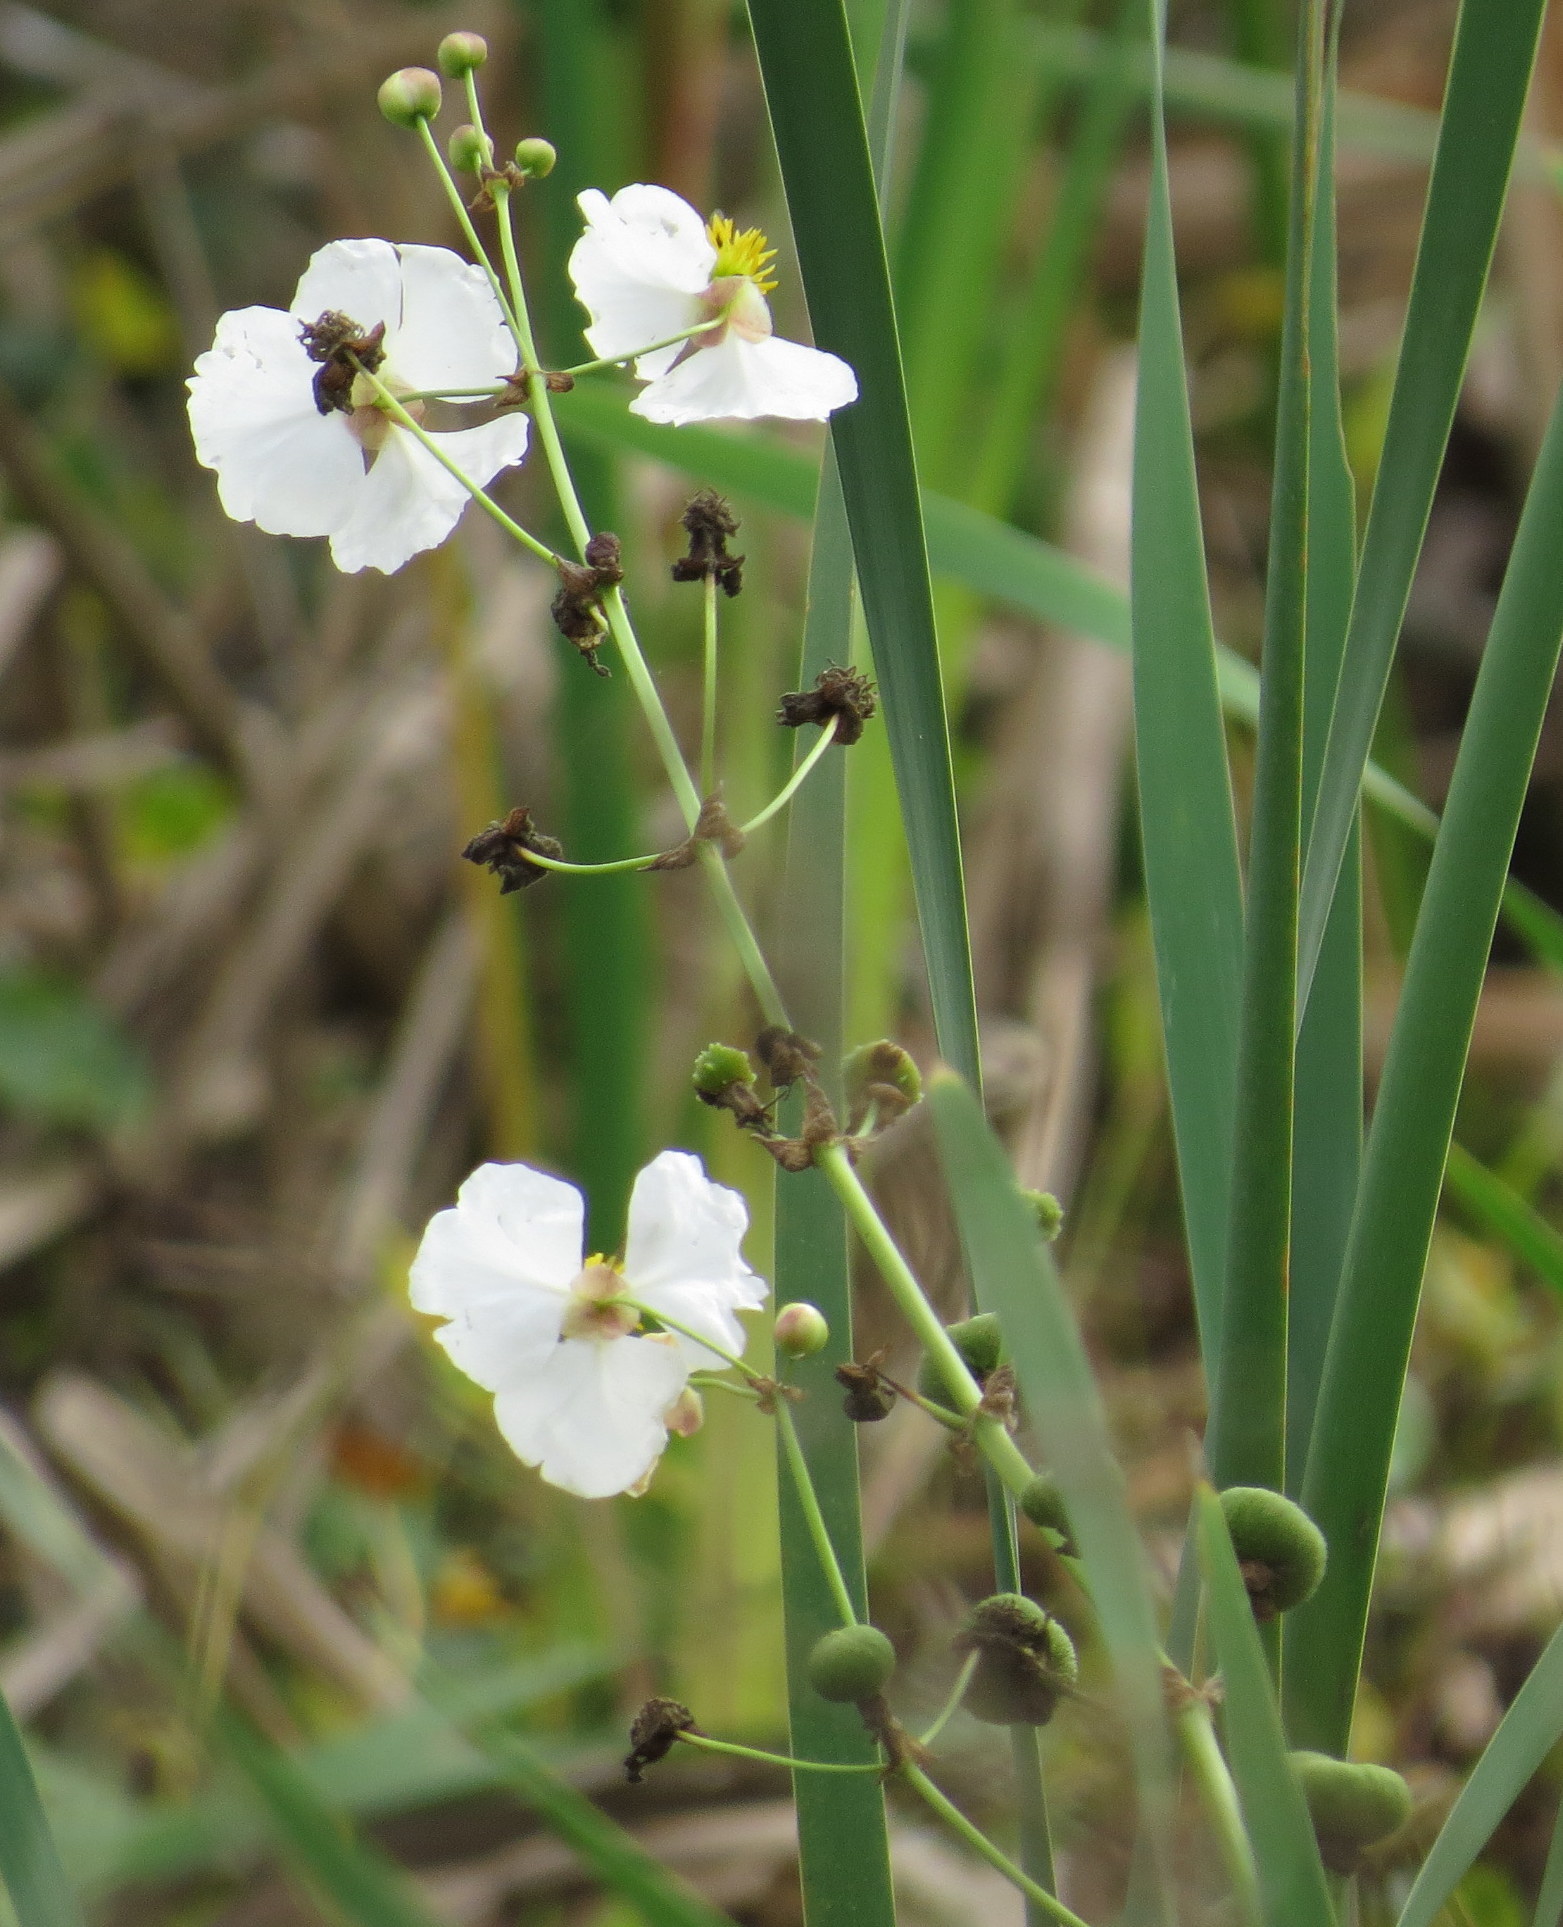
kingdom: Plantae
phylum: Tracheophyta
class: Liliopsida
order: Alismatales
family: Alismataceae
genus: Sagittaria
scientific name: Sagittaria lancifolia
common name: Lance-leaf arrowhead
